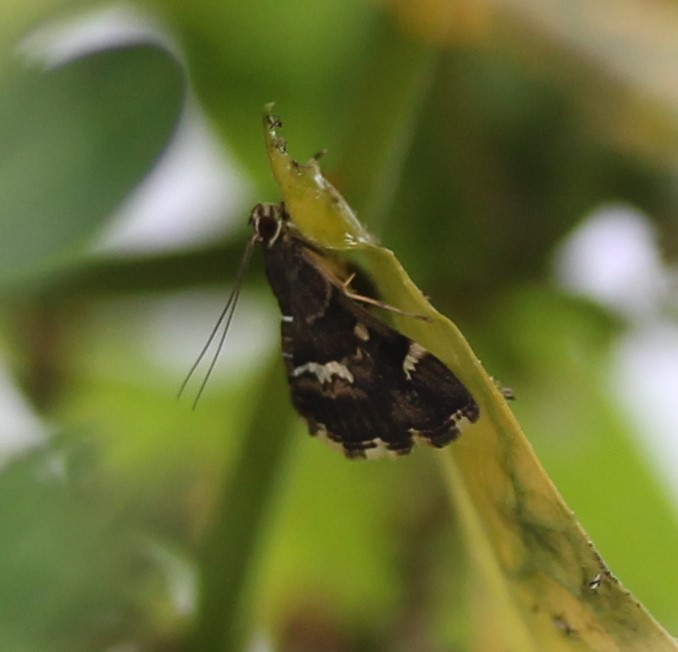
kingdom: Animalia
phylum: Arthropoda
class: Insecta
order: Lepidoptera
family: Crambidae
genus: Hymenia
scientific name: Hymenia perspectalis
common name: Spotted beet webworm
